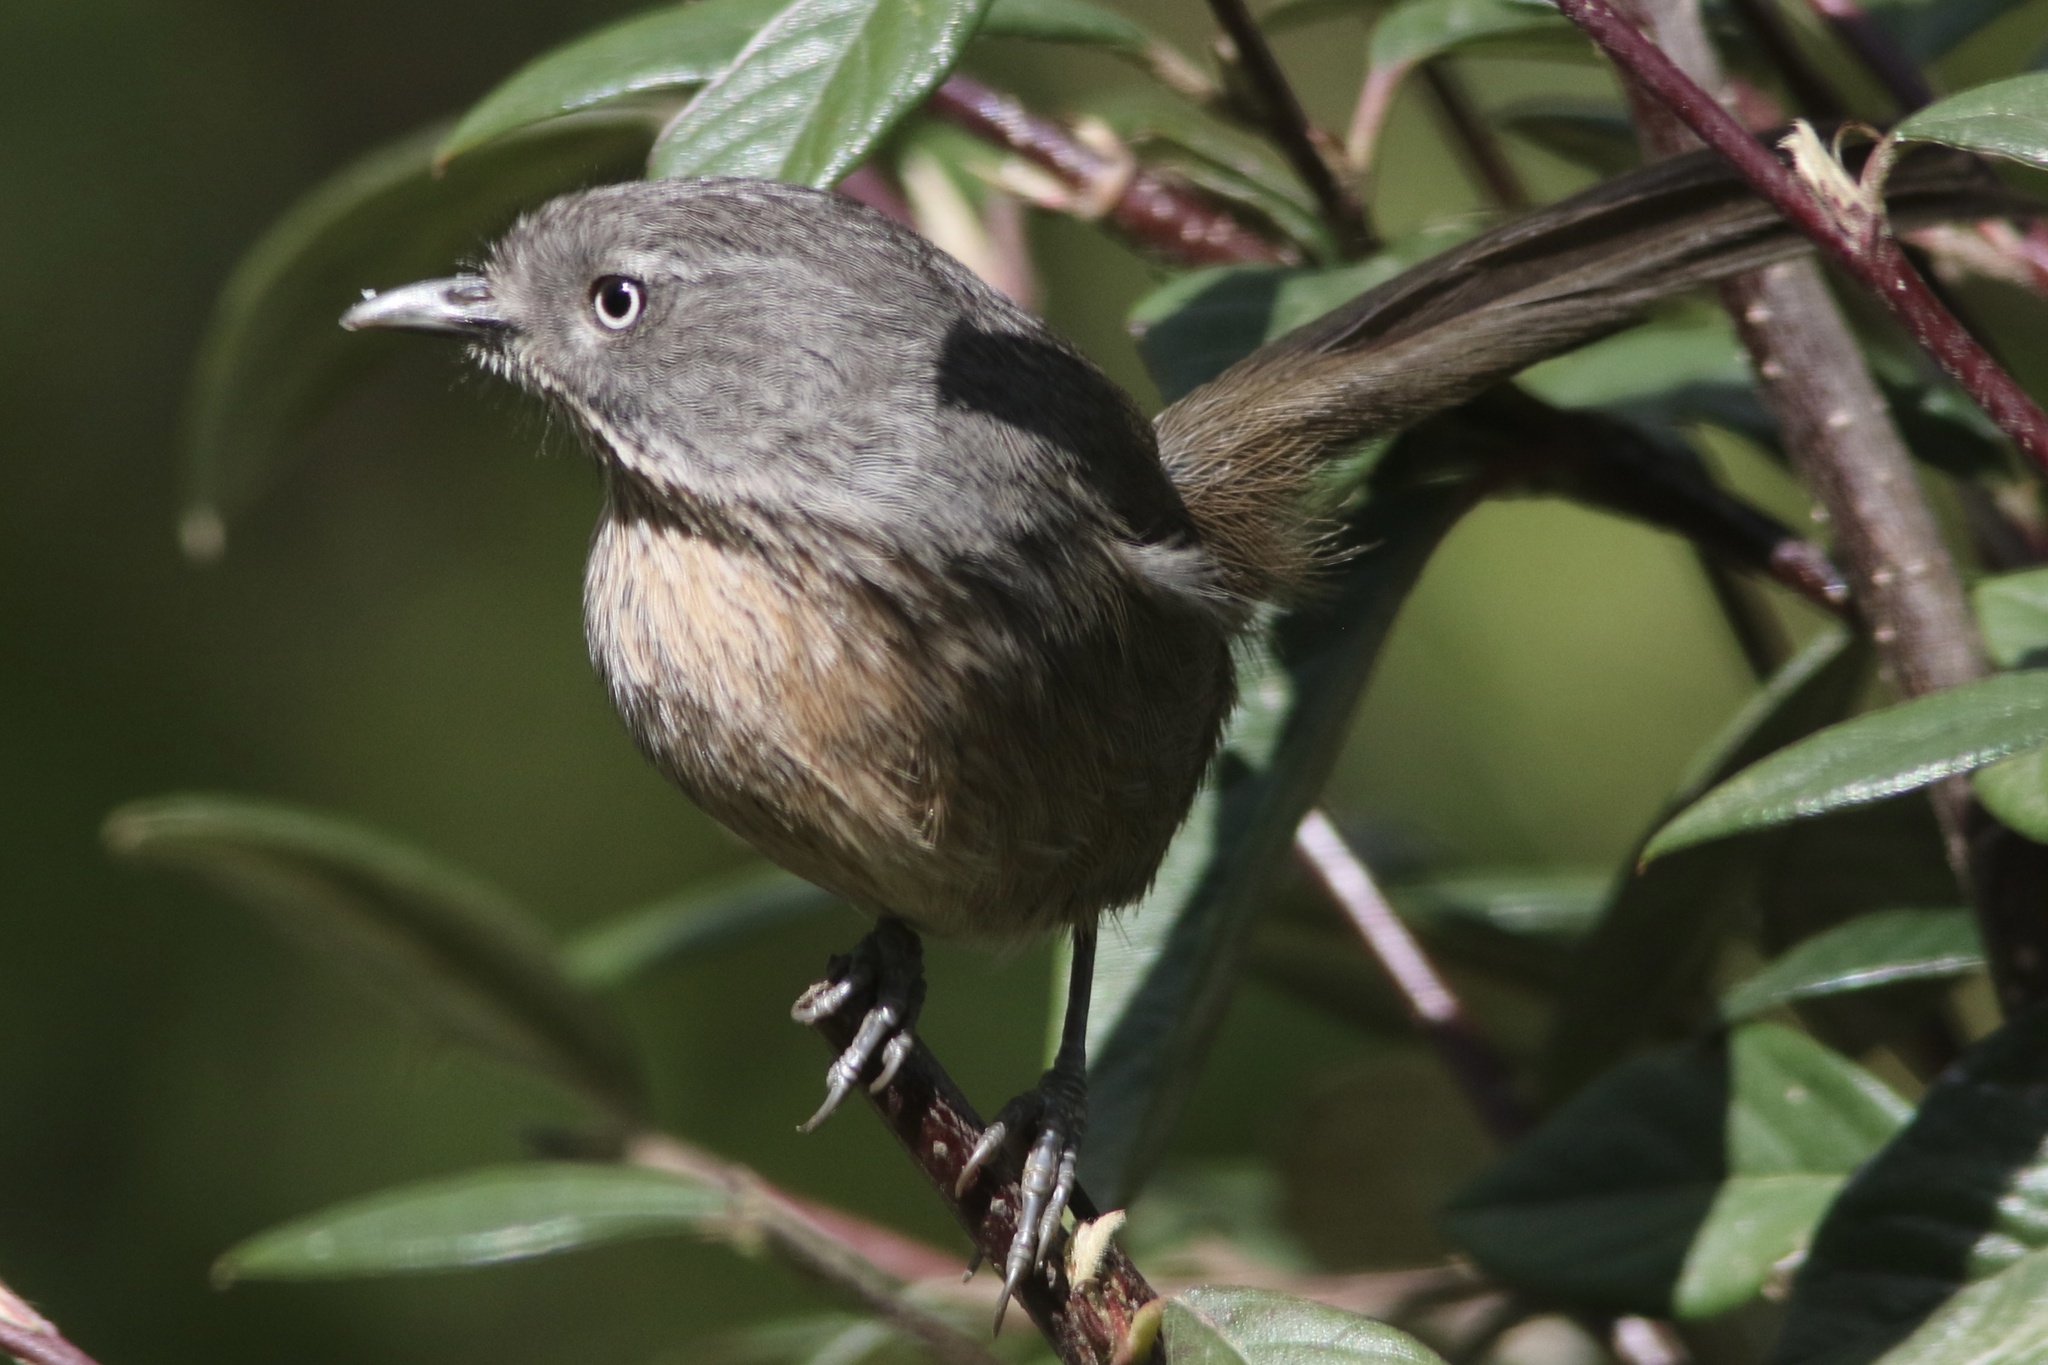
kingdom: Animalia
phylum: Chordata
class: Aves
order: Passeriformes
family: Sylviidae
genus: Chamaea
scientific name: Chamaea fasciata
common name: Wrentit
